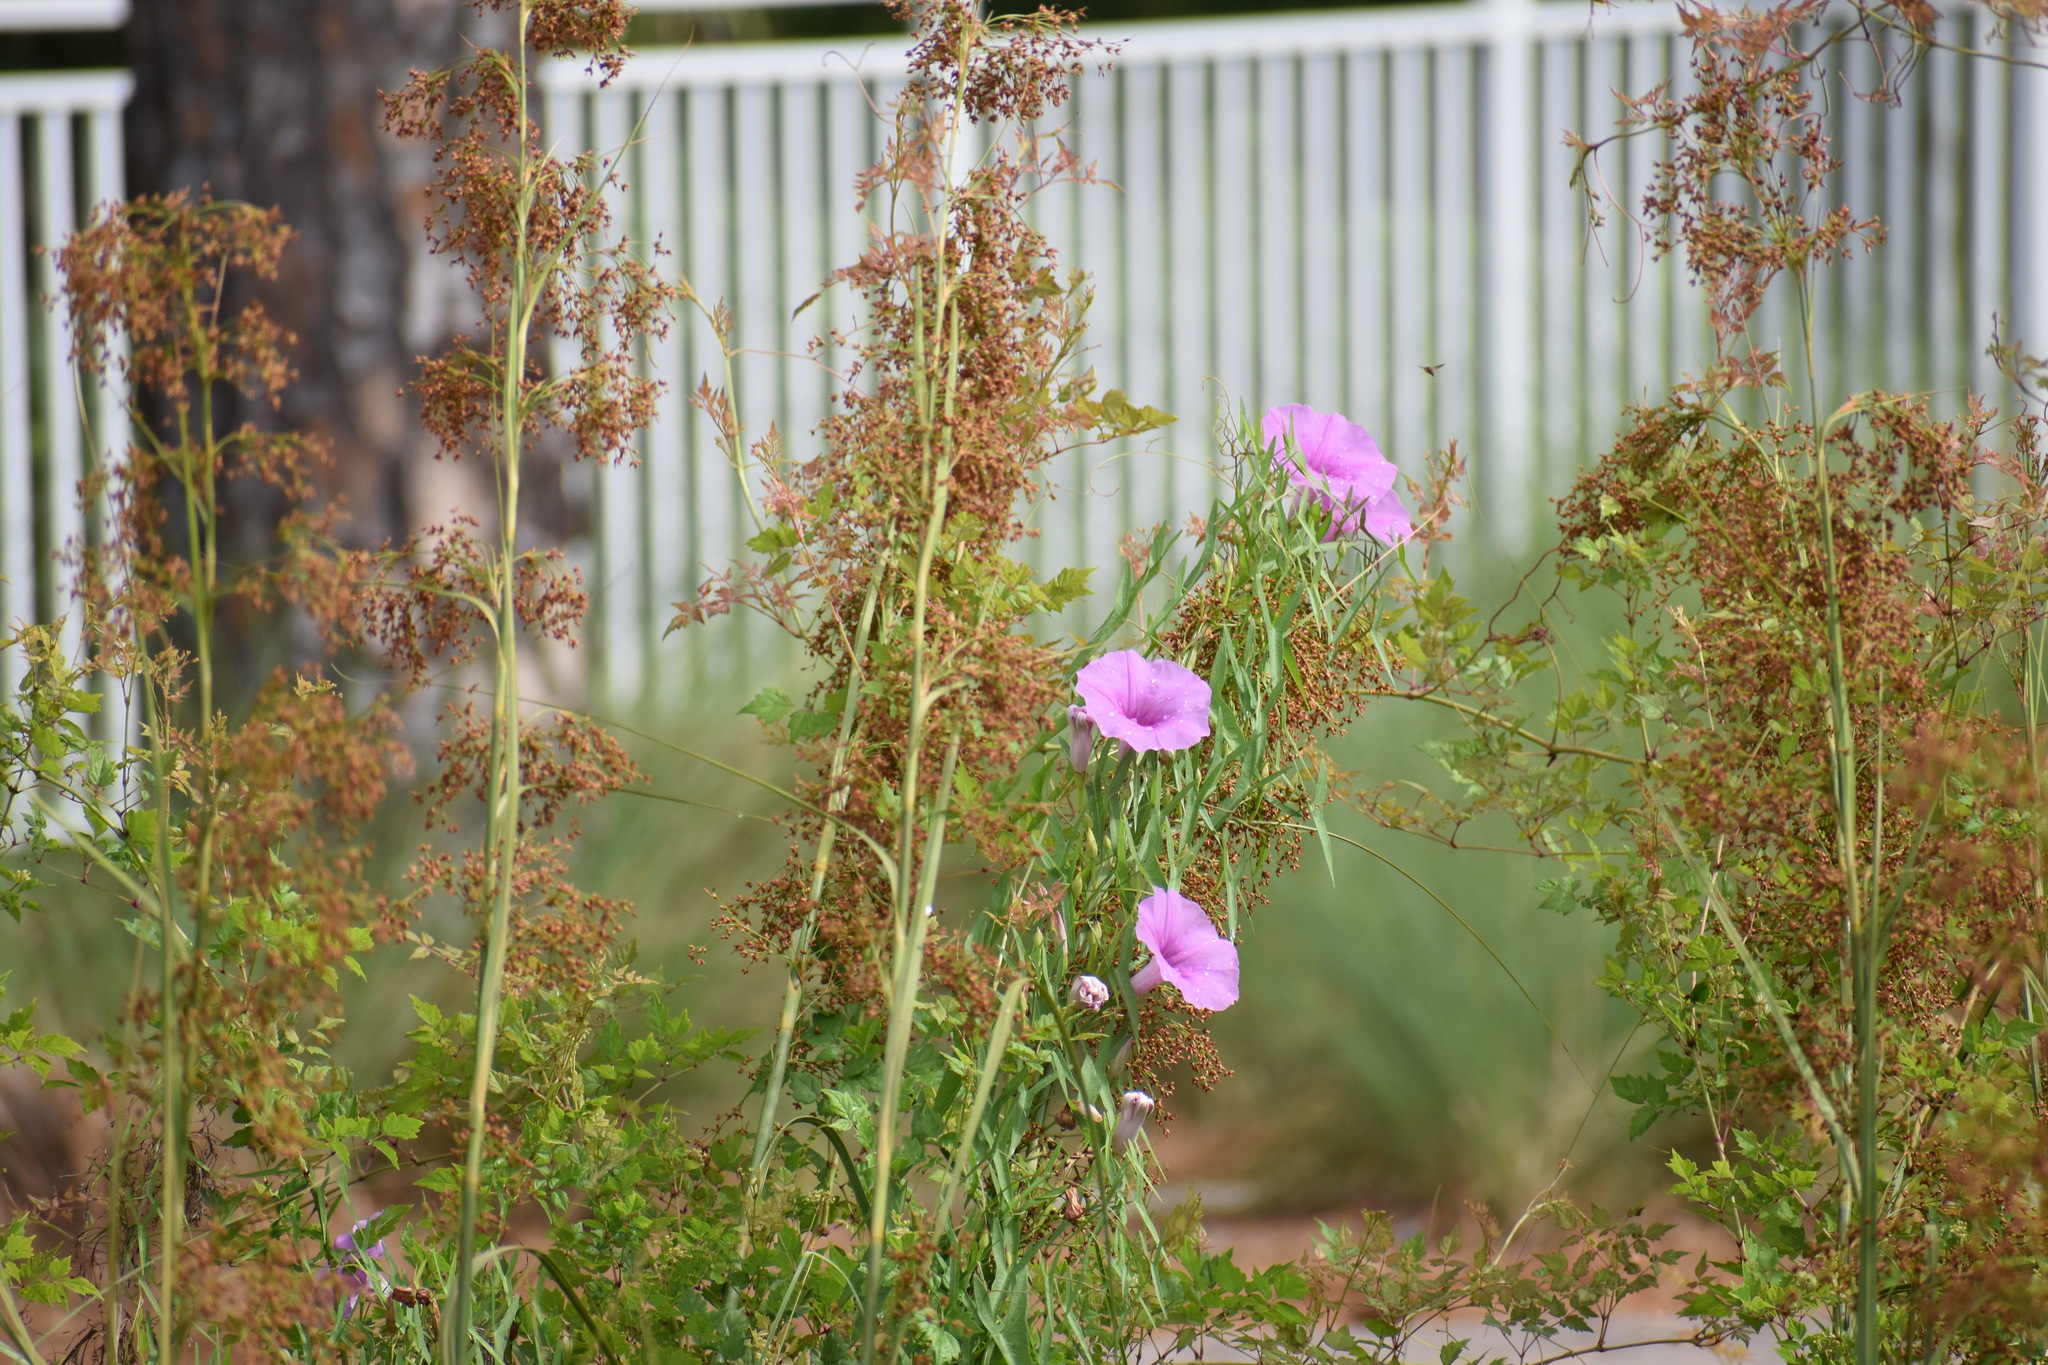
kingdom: Plantae
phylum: Tracheophyta
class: Magnoliopsida
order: Solanales
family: Convolvulaceae
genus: Ipomoea
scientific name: Ipomoea sagittata
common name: Saltmarsh morning glory
